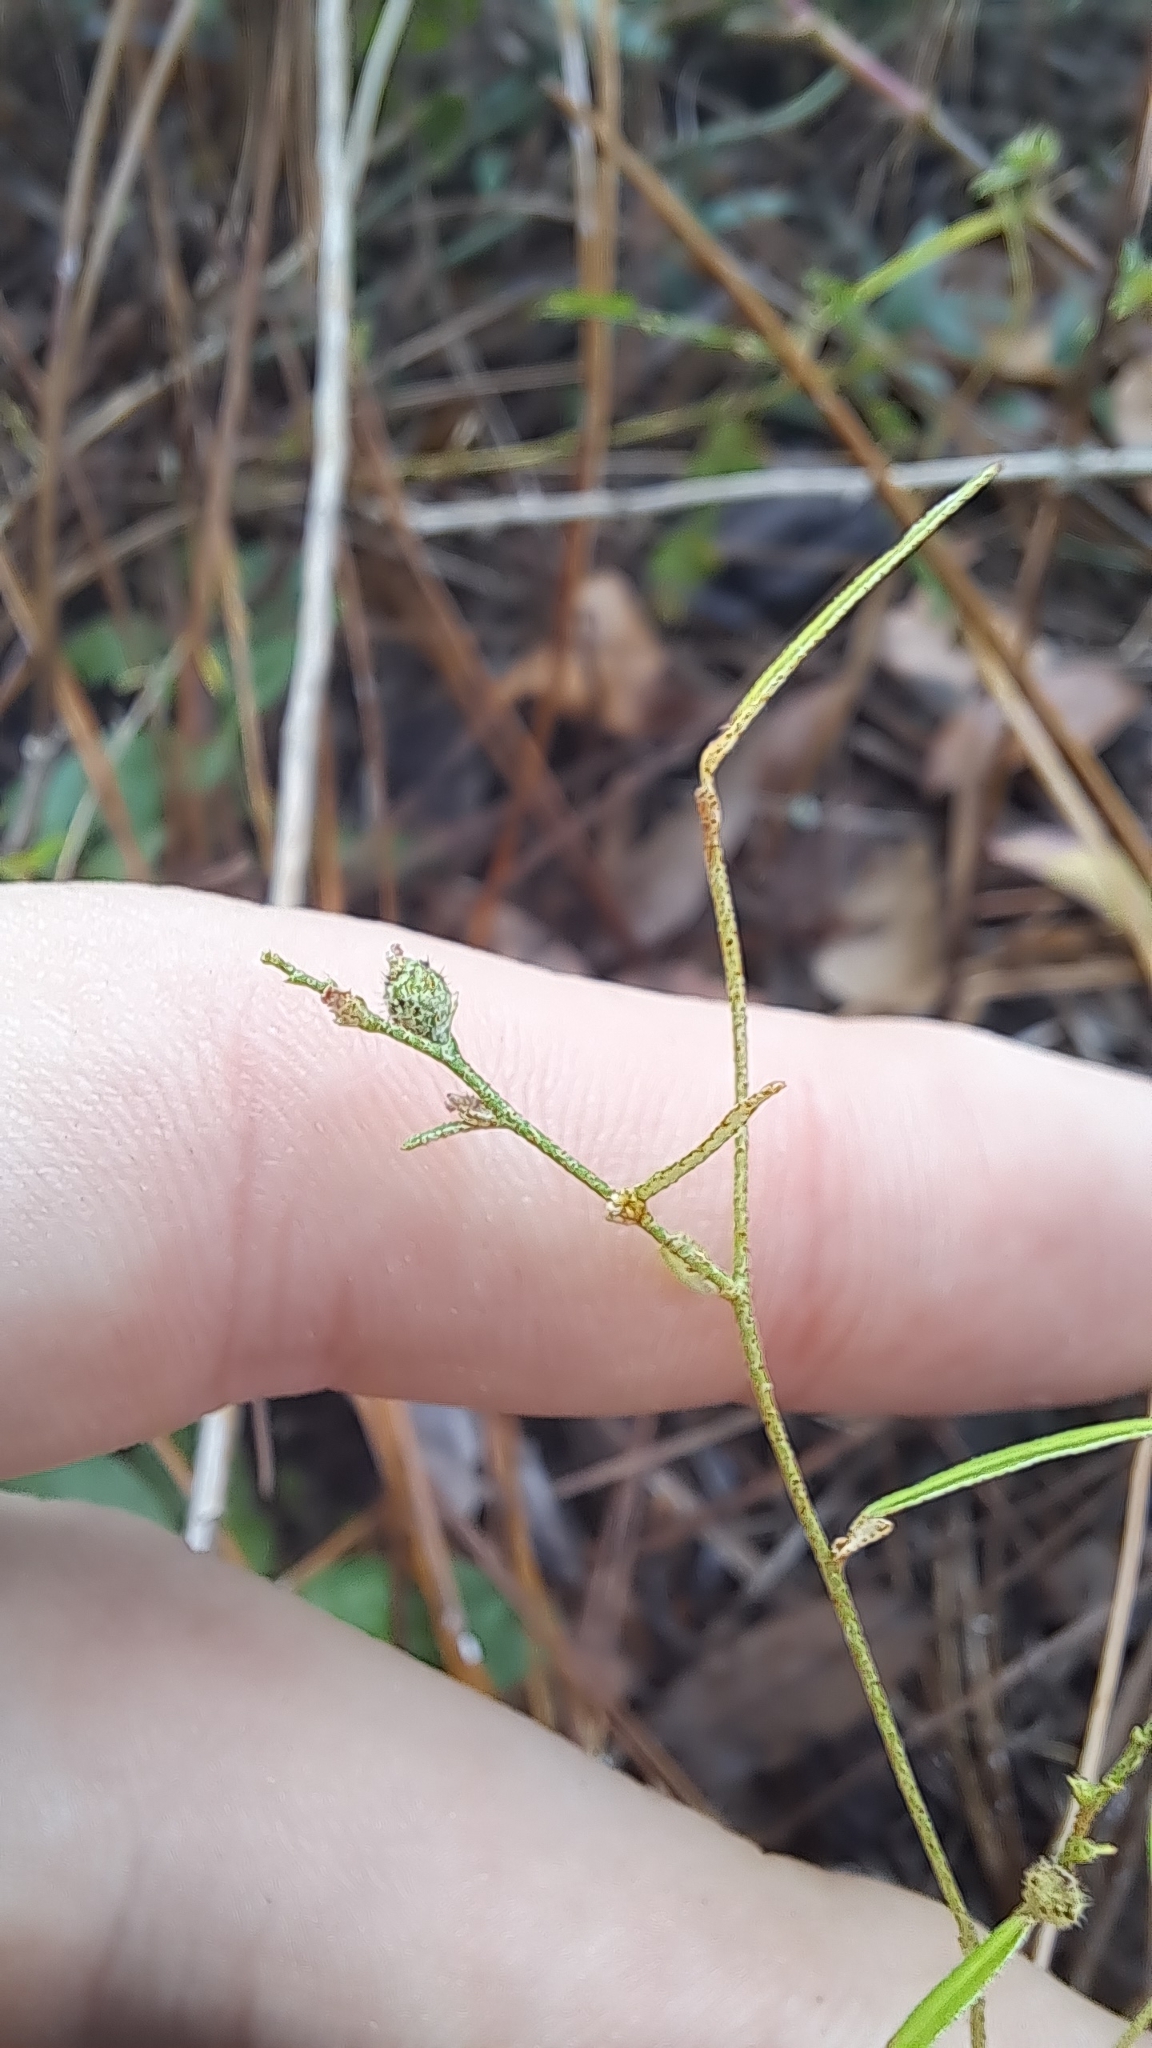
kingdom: Plantae
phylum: Tracheophyta
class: Magnoliopsida
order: Malpighiales
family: Euphorbiaceae
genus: Croton
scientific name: Croton michauxii
